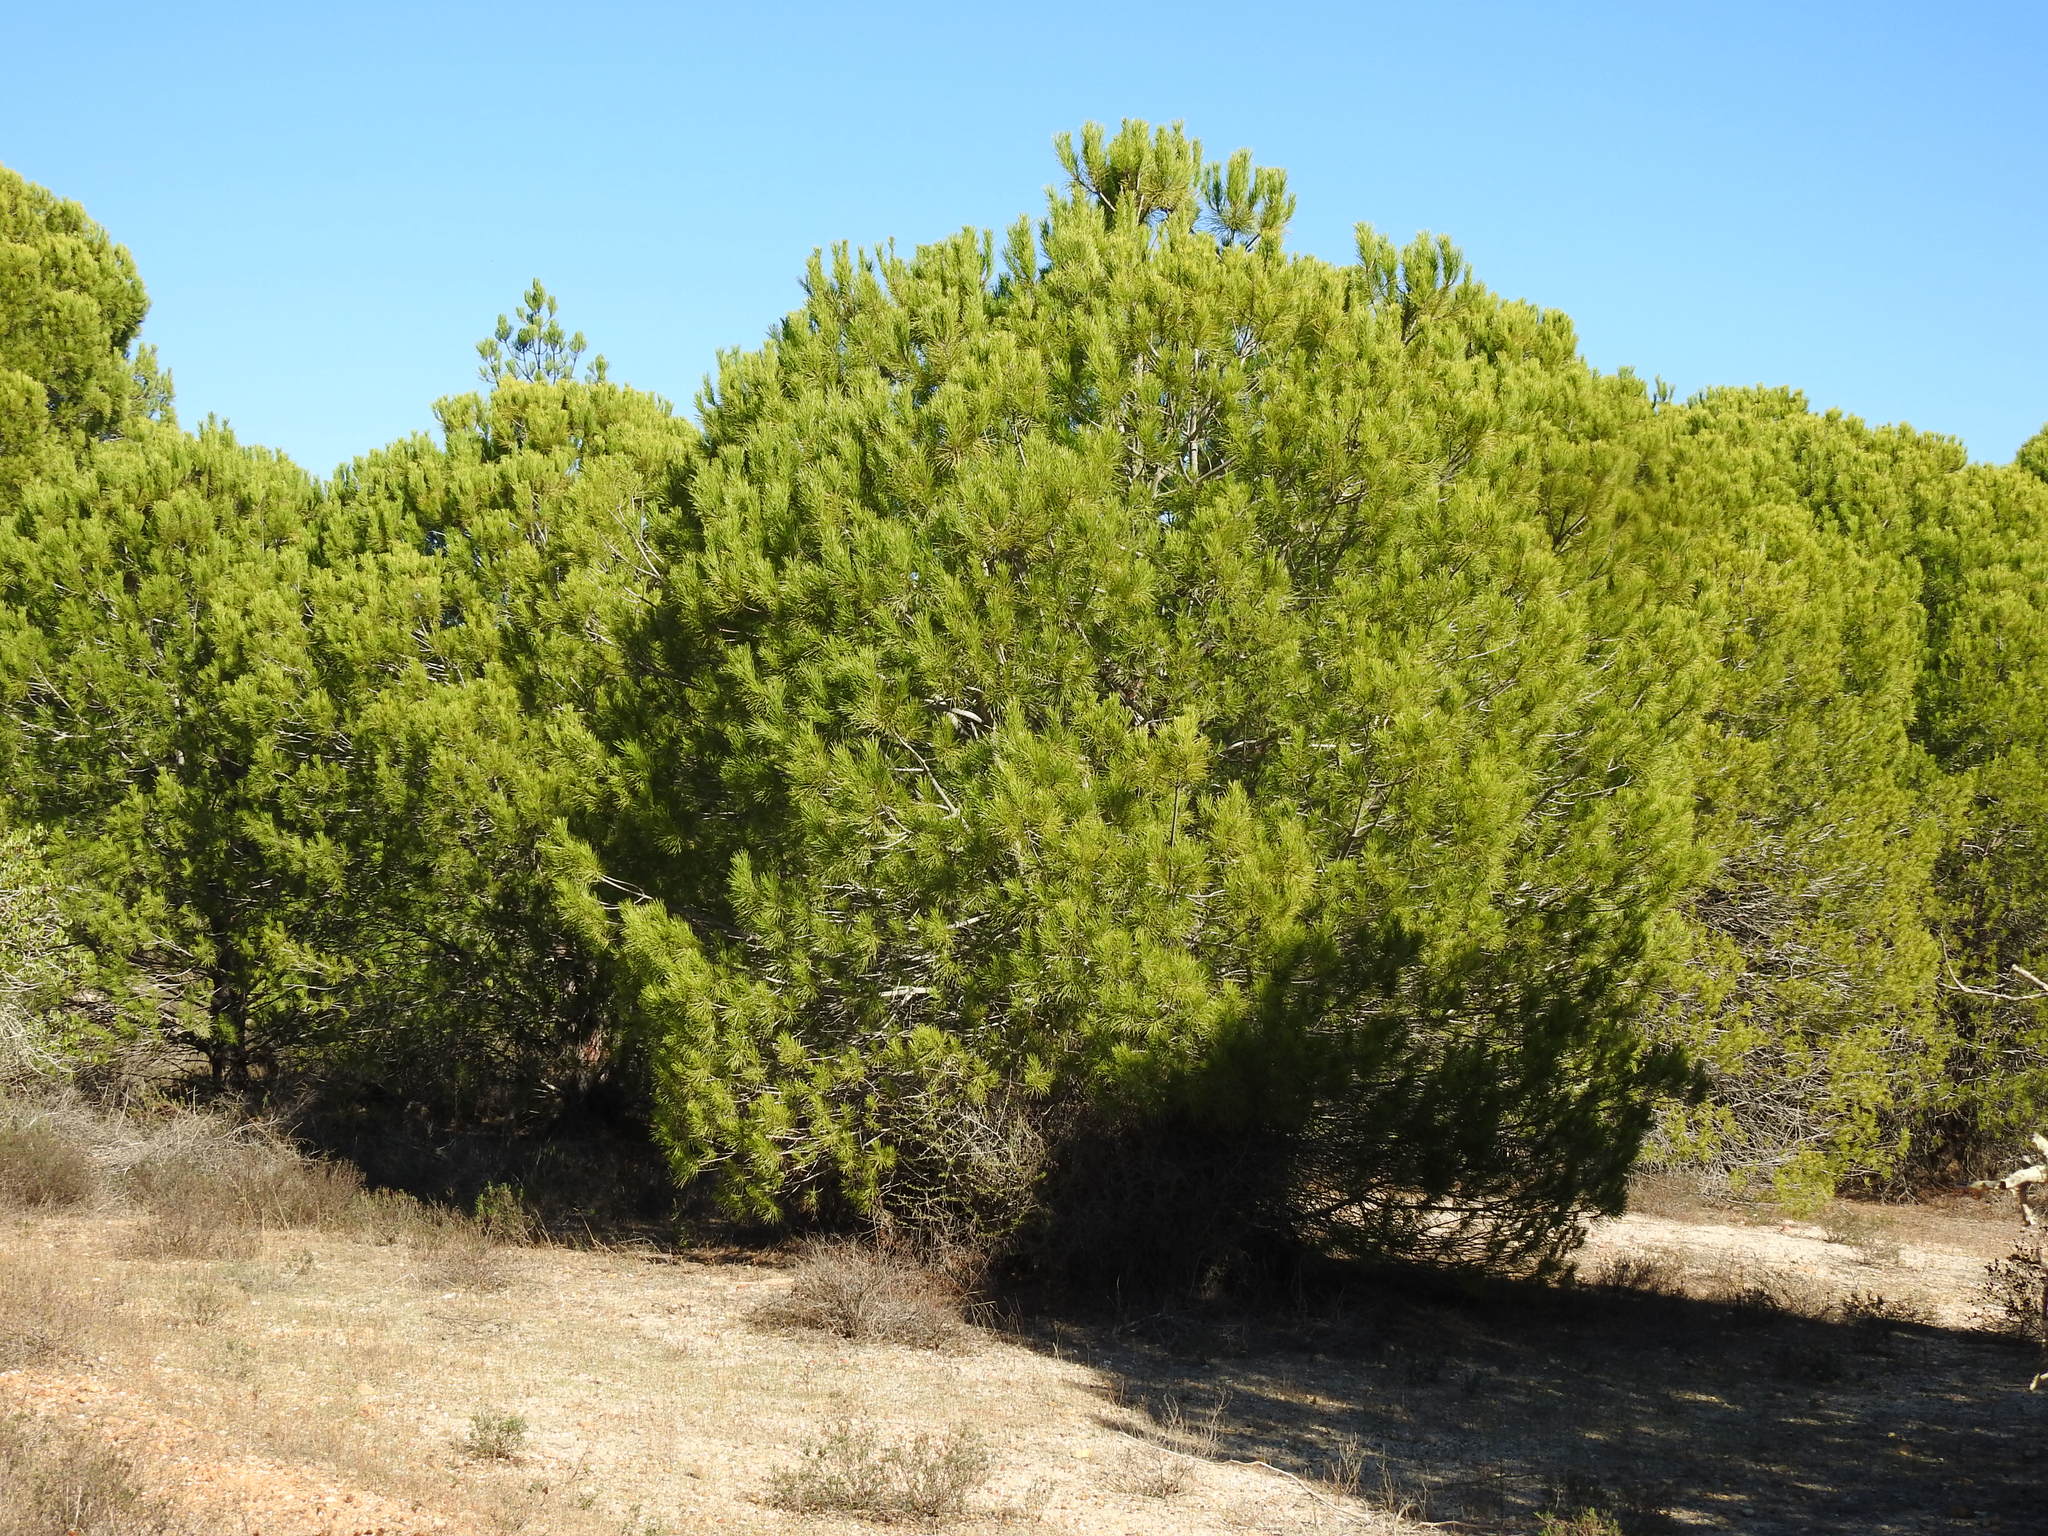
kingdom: Plantae
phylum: Tracheophyta
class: Pinopsida
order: Pinales
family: Pinaceae
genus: Pinus
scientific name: Pinus pinea
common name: Italian stone pine
